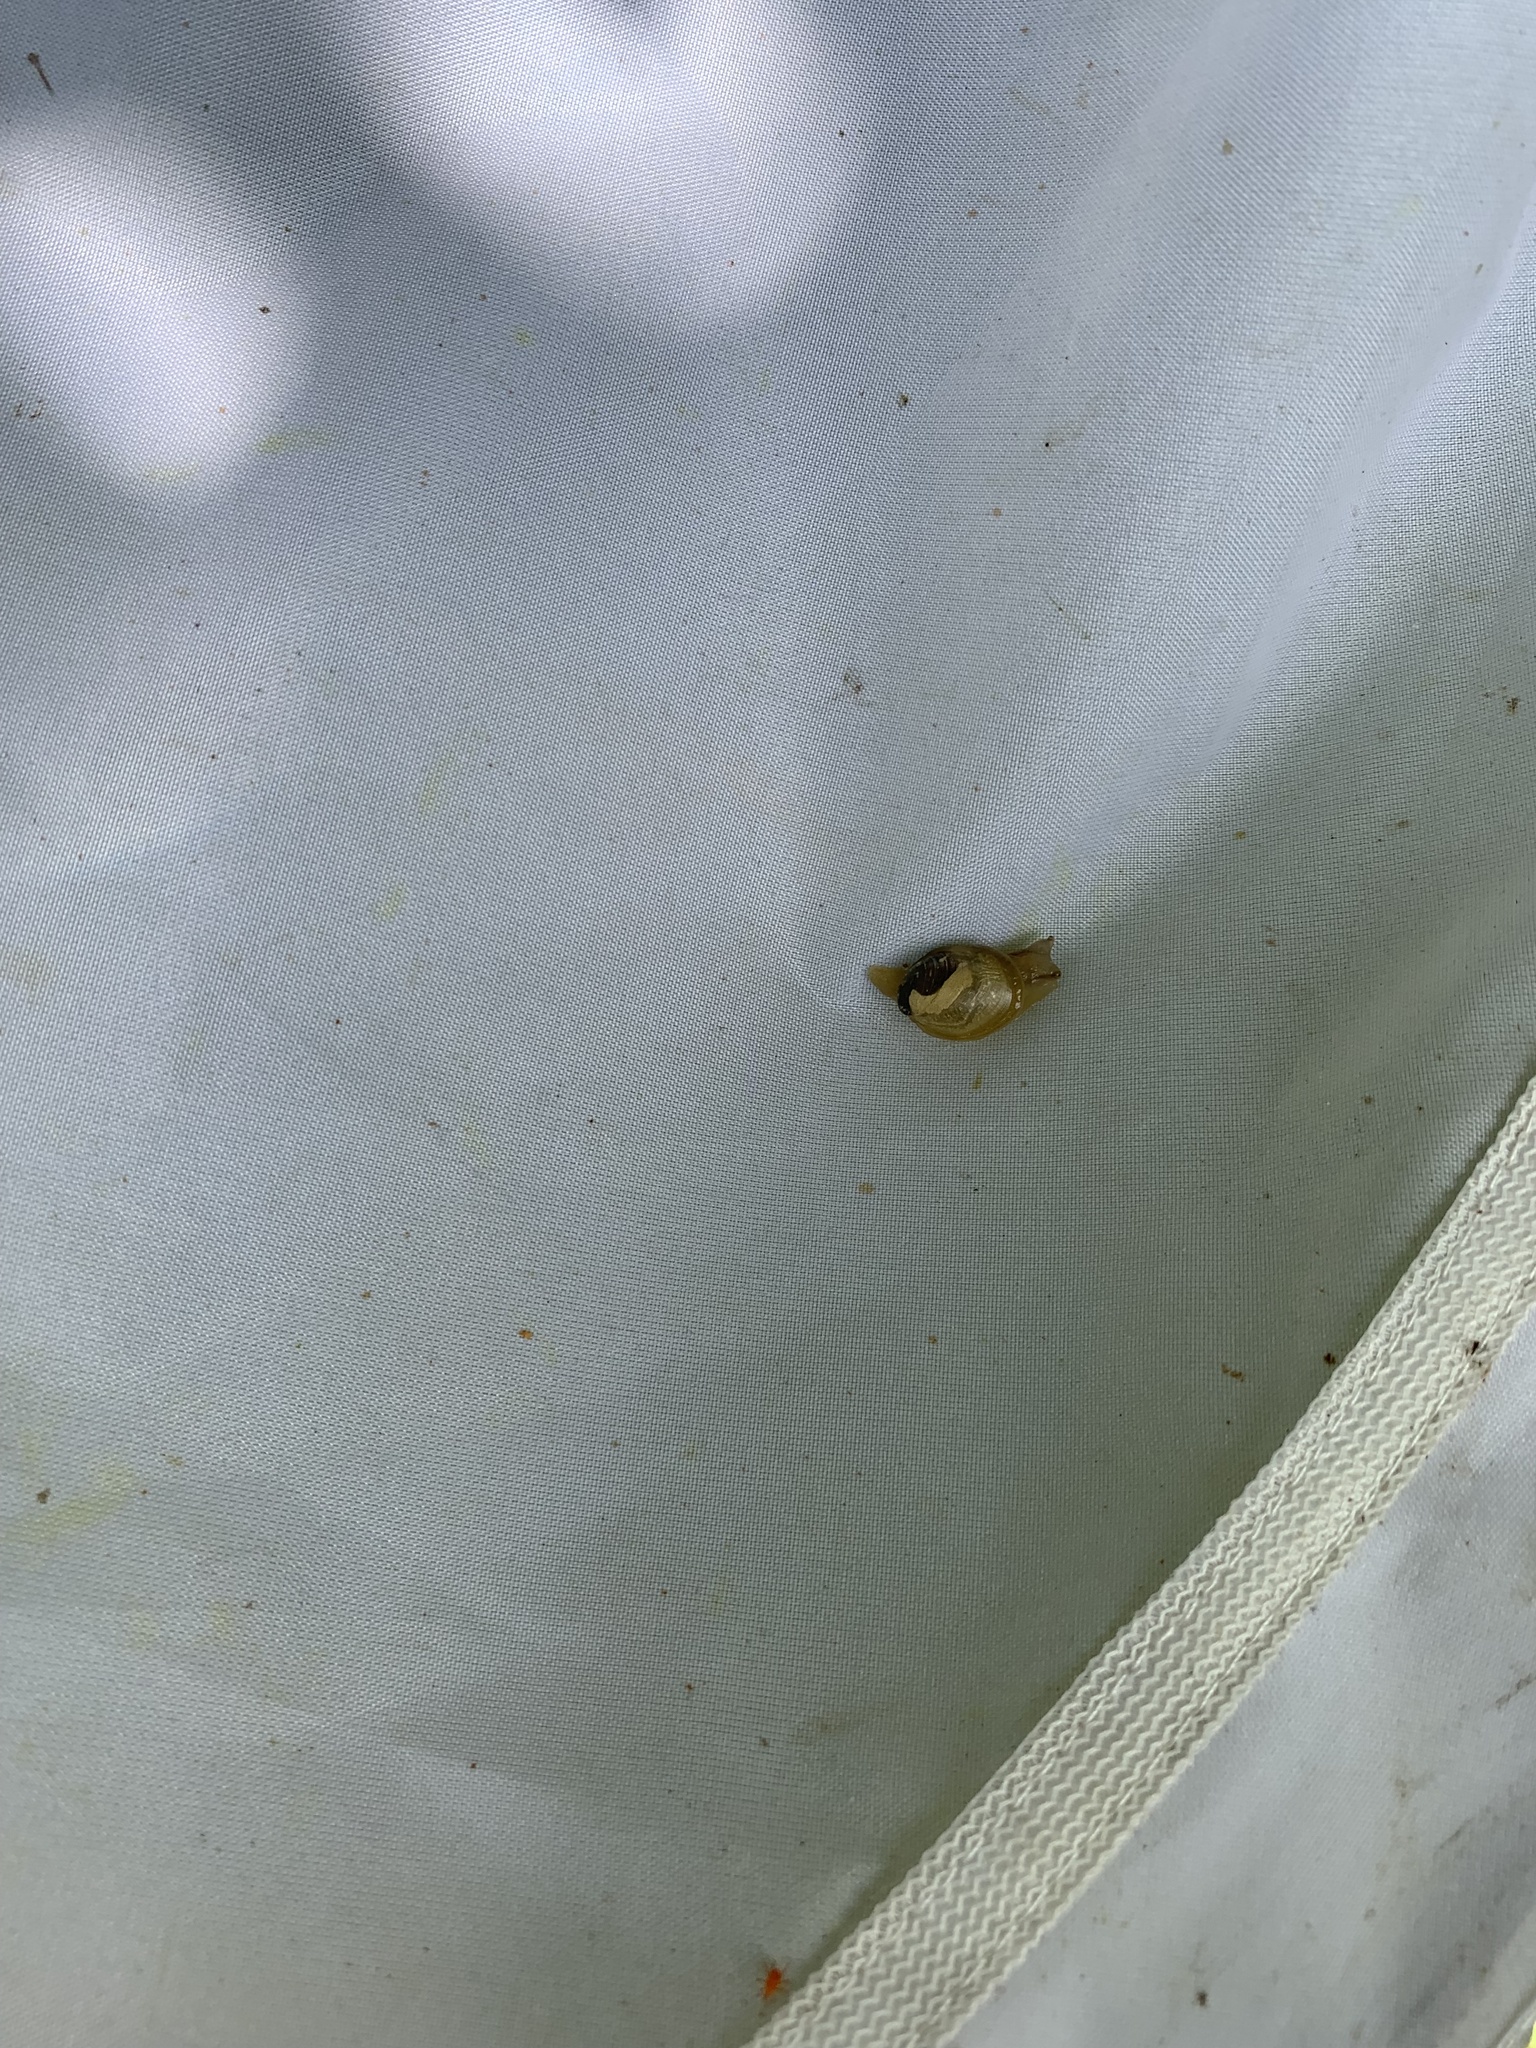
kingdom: Animalia
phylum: Mollusca
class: Gastropoda
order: Stylommatophora
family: Succineidae
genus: Boninosuccinea
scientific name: Boninosuccinea ogasawarae
